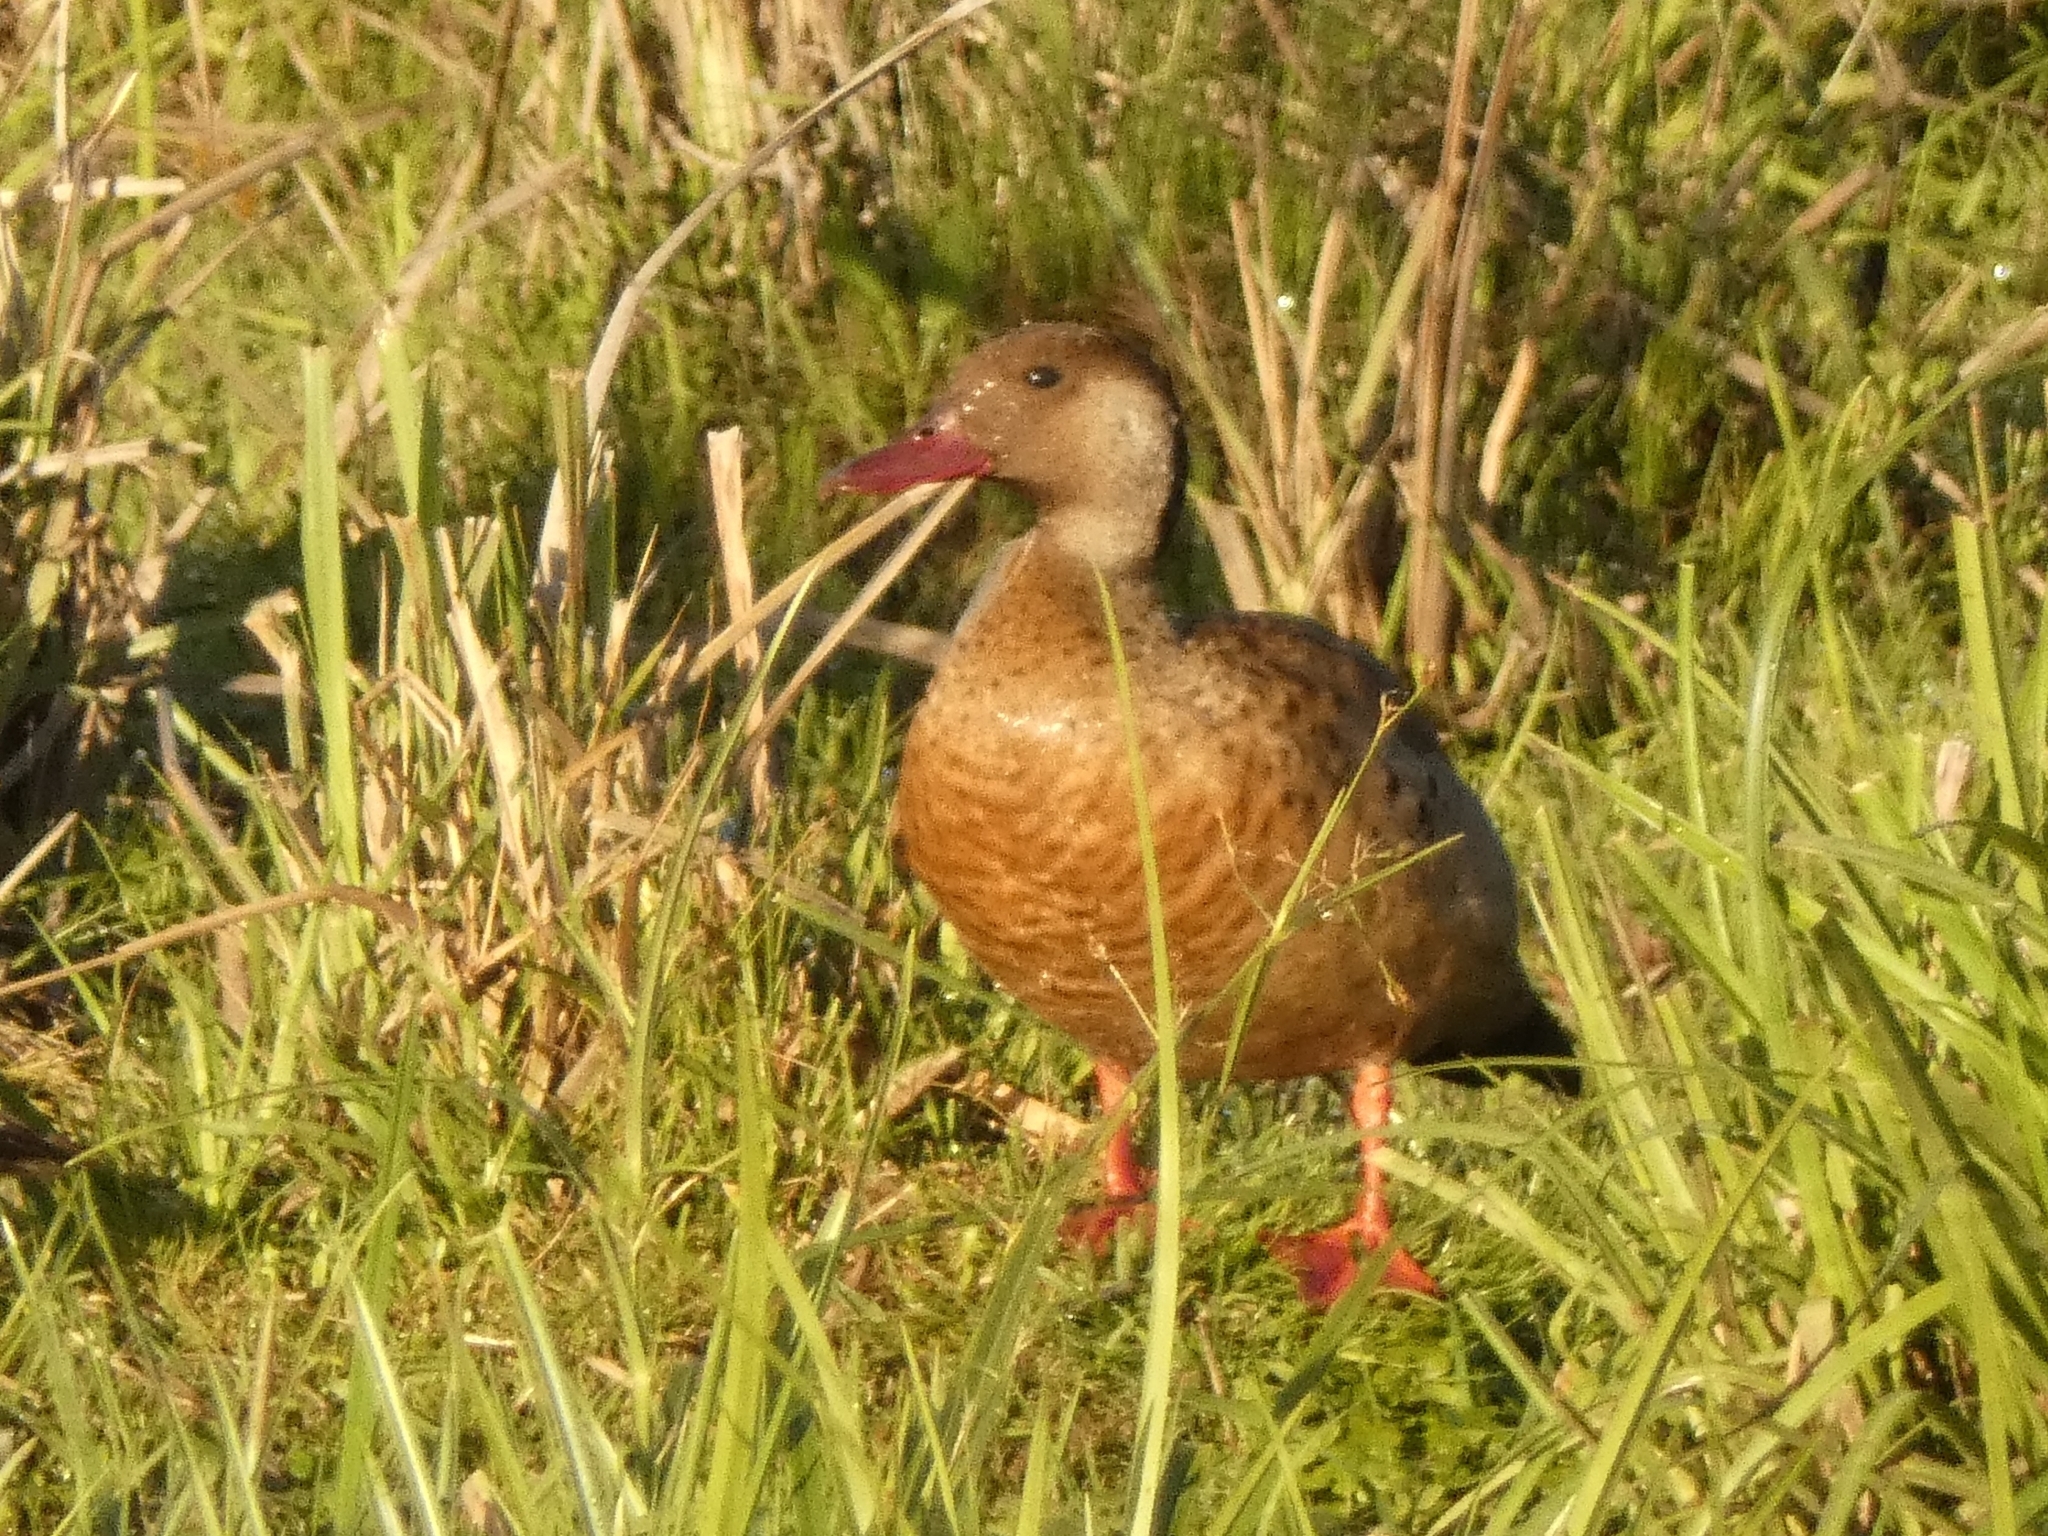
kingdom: Animalia
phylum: Chordata
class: Aves
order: Anseriformes
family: Anatidae
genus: Amazonetta
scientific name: Amazonetta brasiliensis
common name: Brazilian teal
